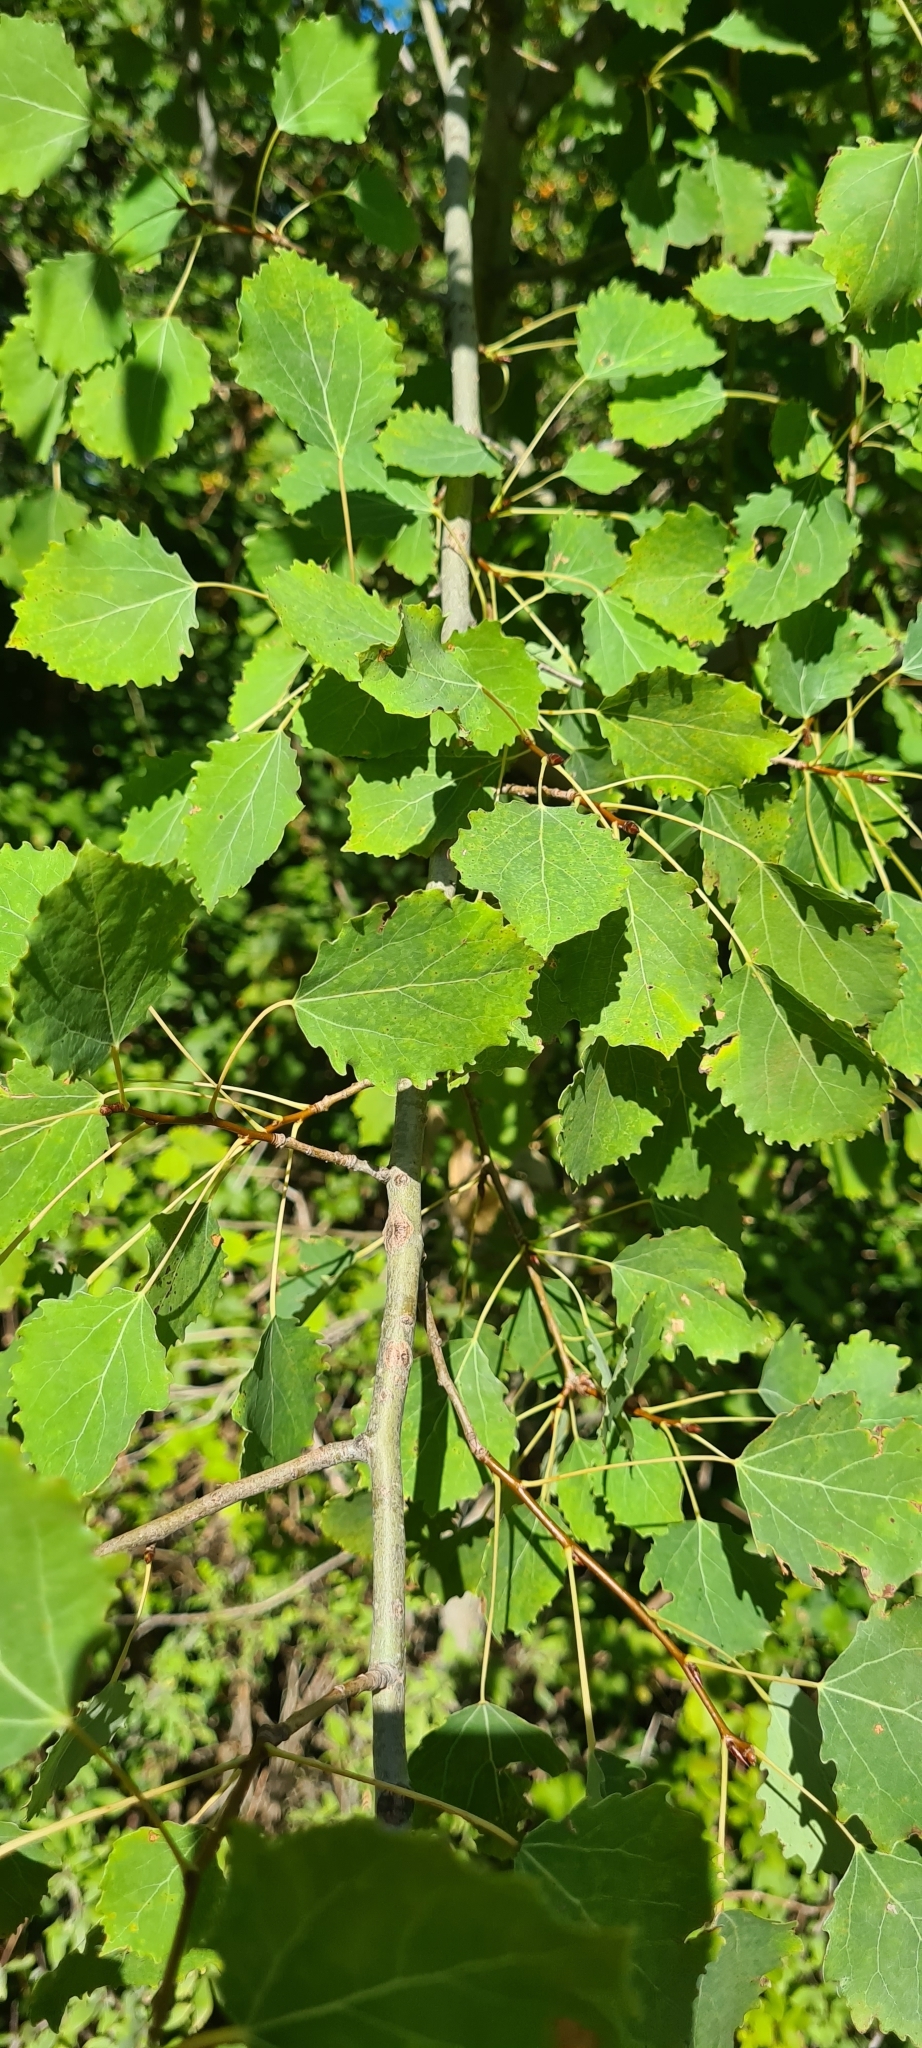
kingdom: Plantae
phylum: Tracheophyta
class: Magnoliopsida
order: Malpighiales
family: Salicaceae
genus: Populus
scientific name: Populus tremula
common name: European aspen
